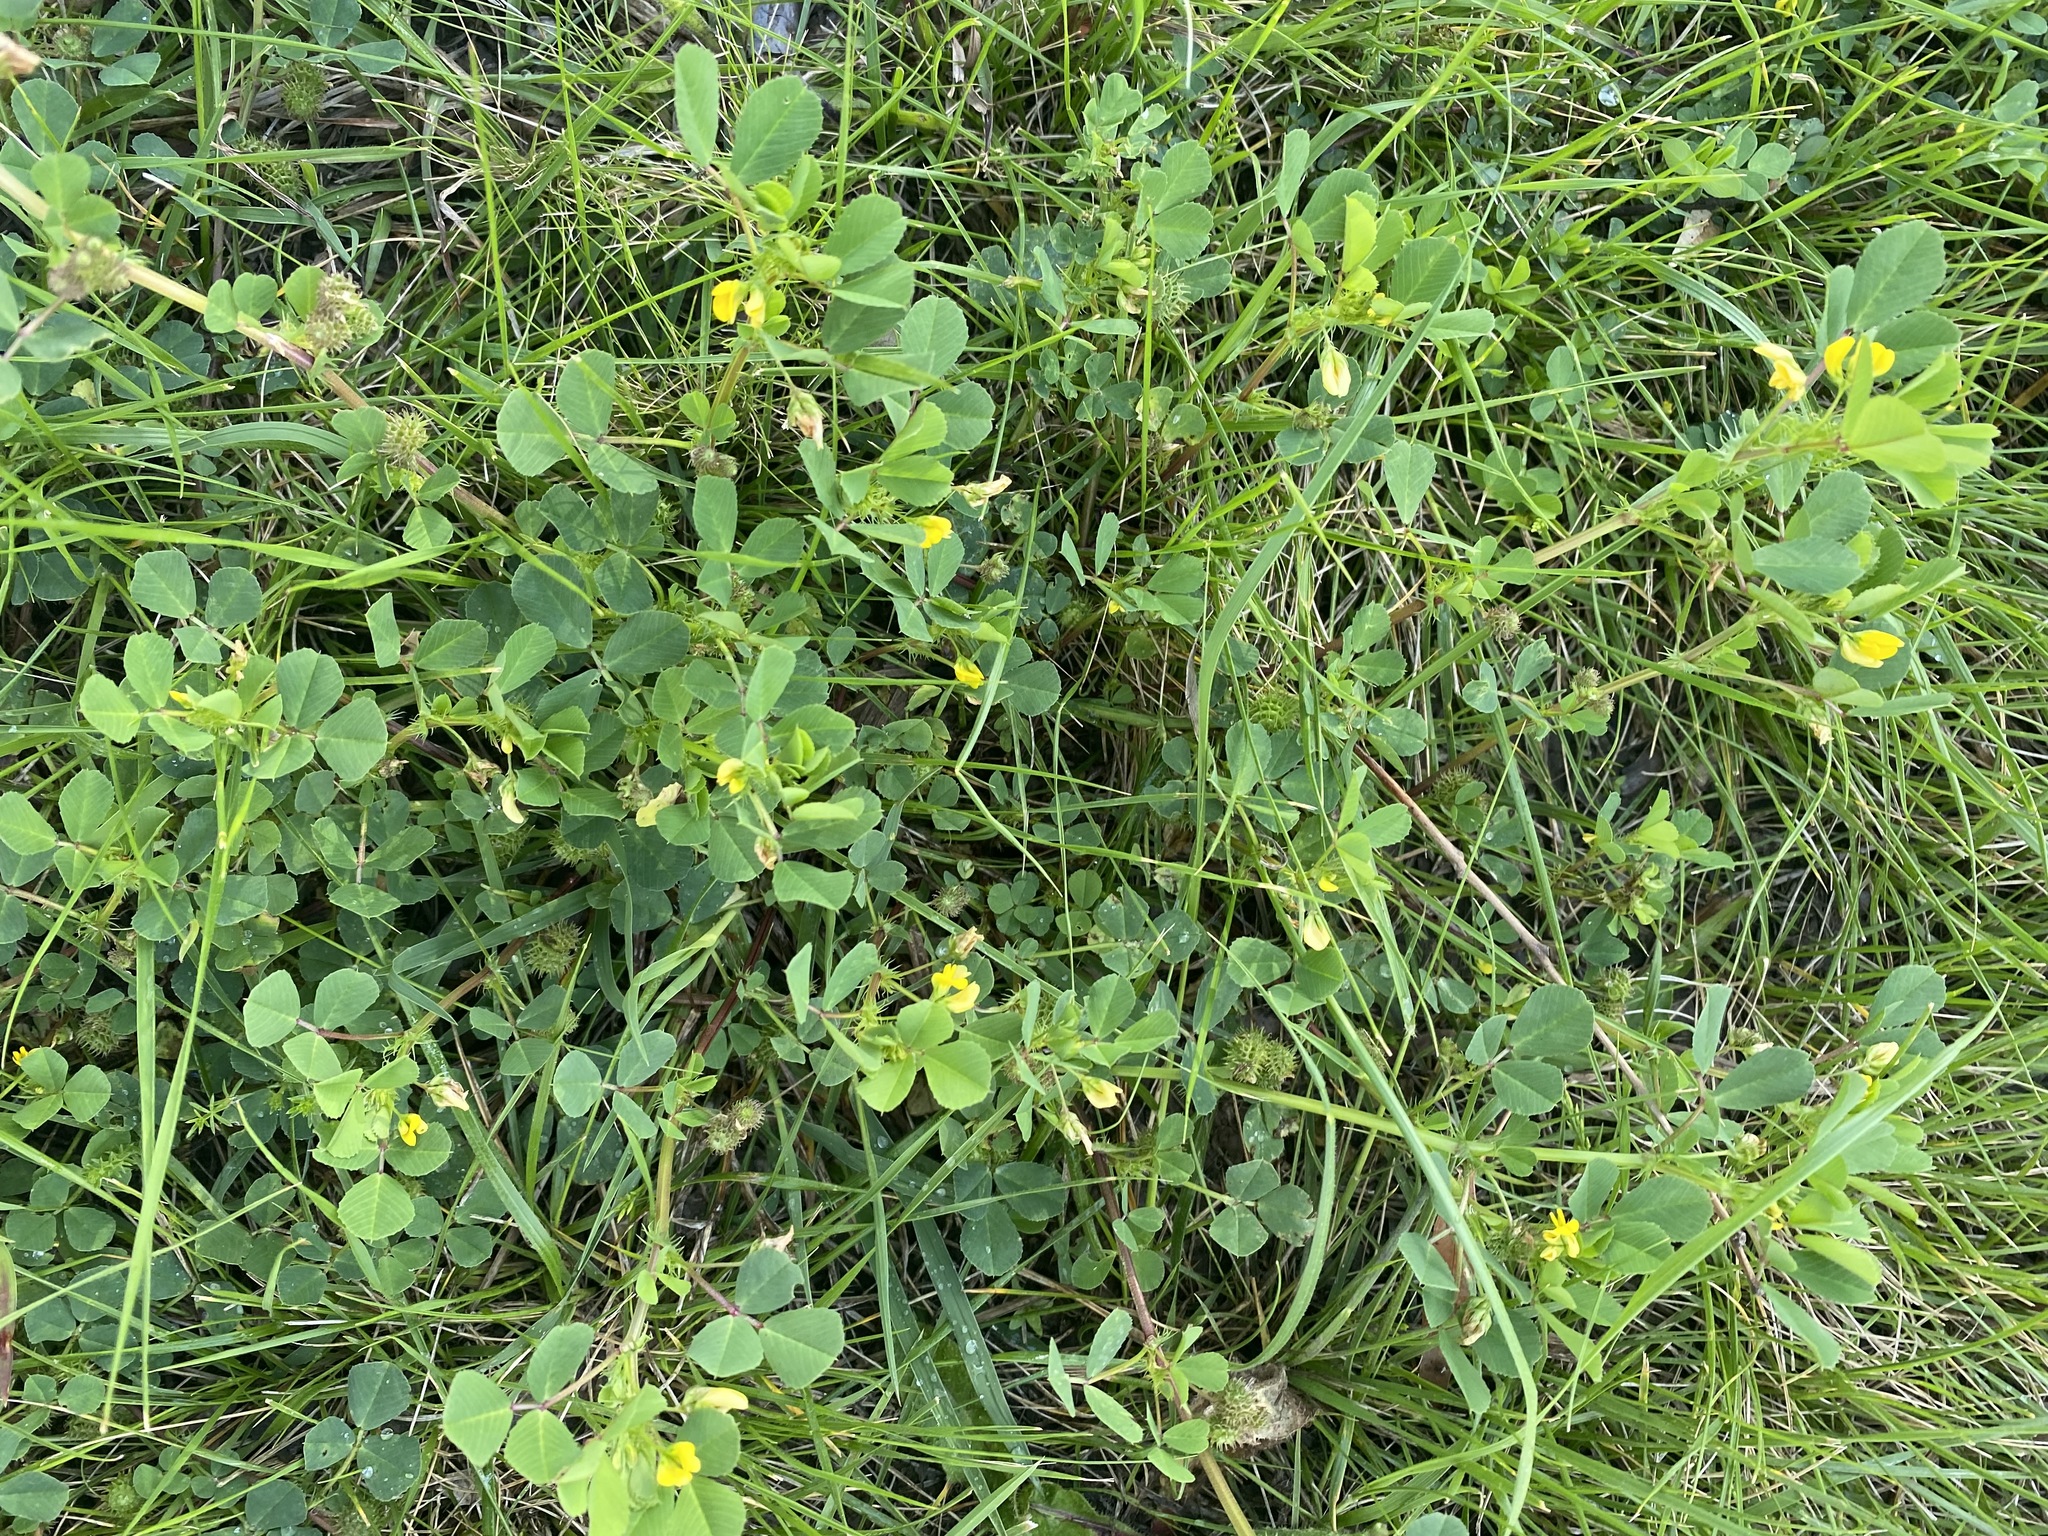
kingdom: Plantae
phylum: Tracheophyta
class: Magnoliopsida
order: Fabales
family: Fabaceae
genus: Medicago
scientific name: Medicago polymorpha
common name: Burclover
